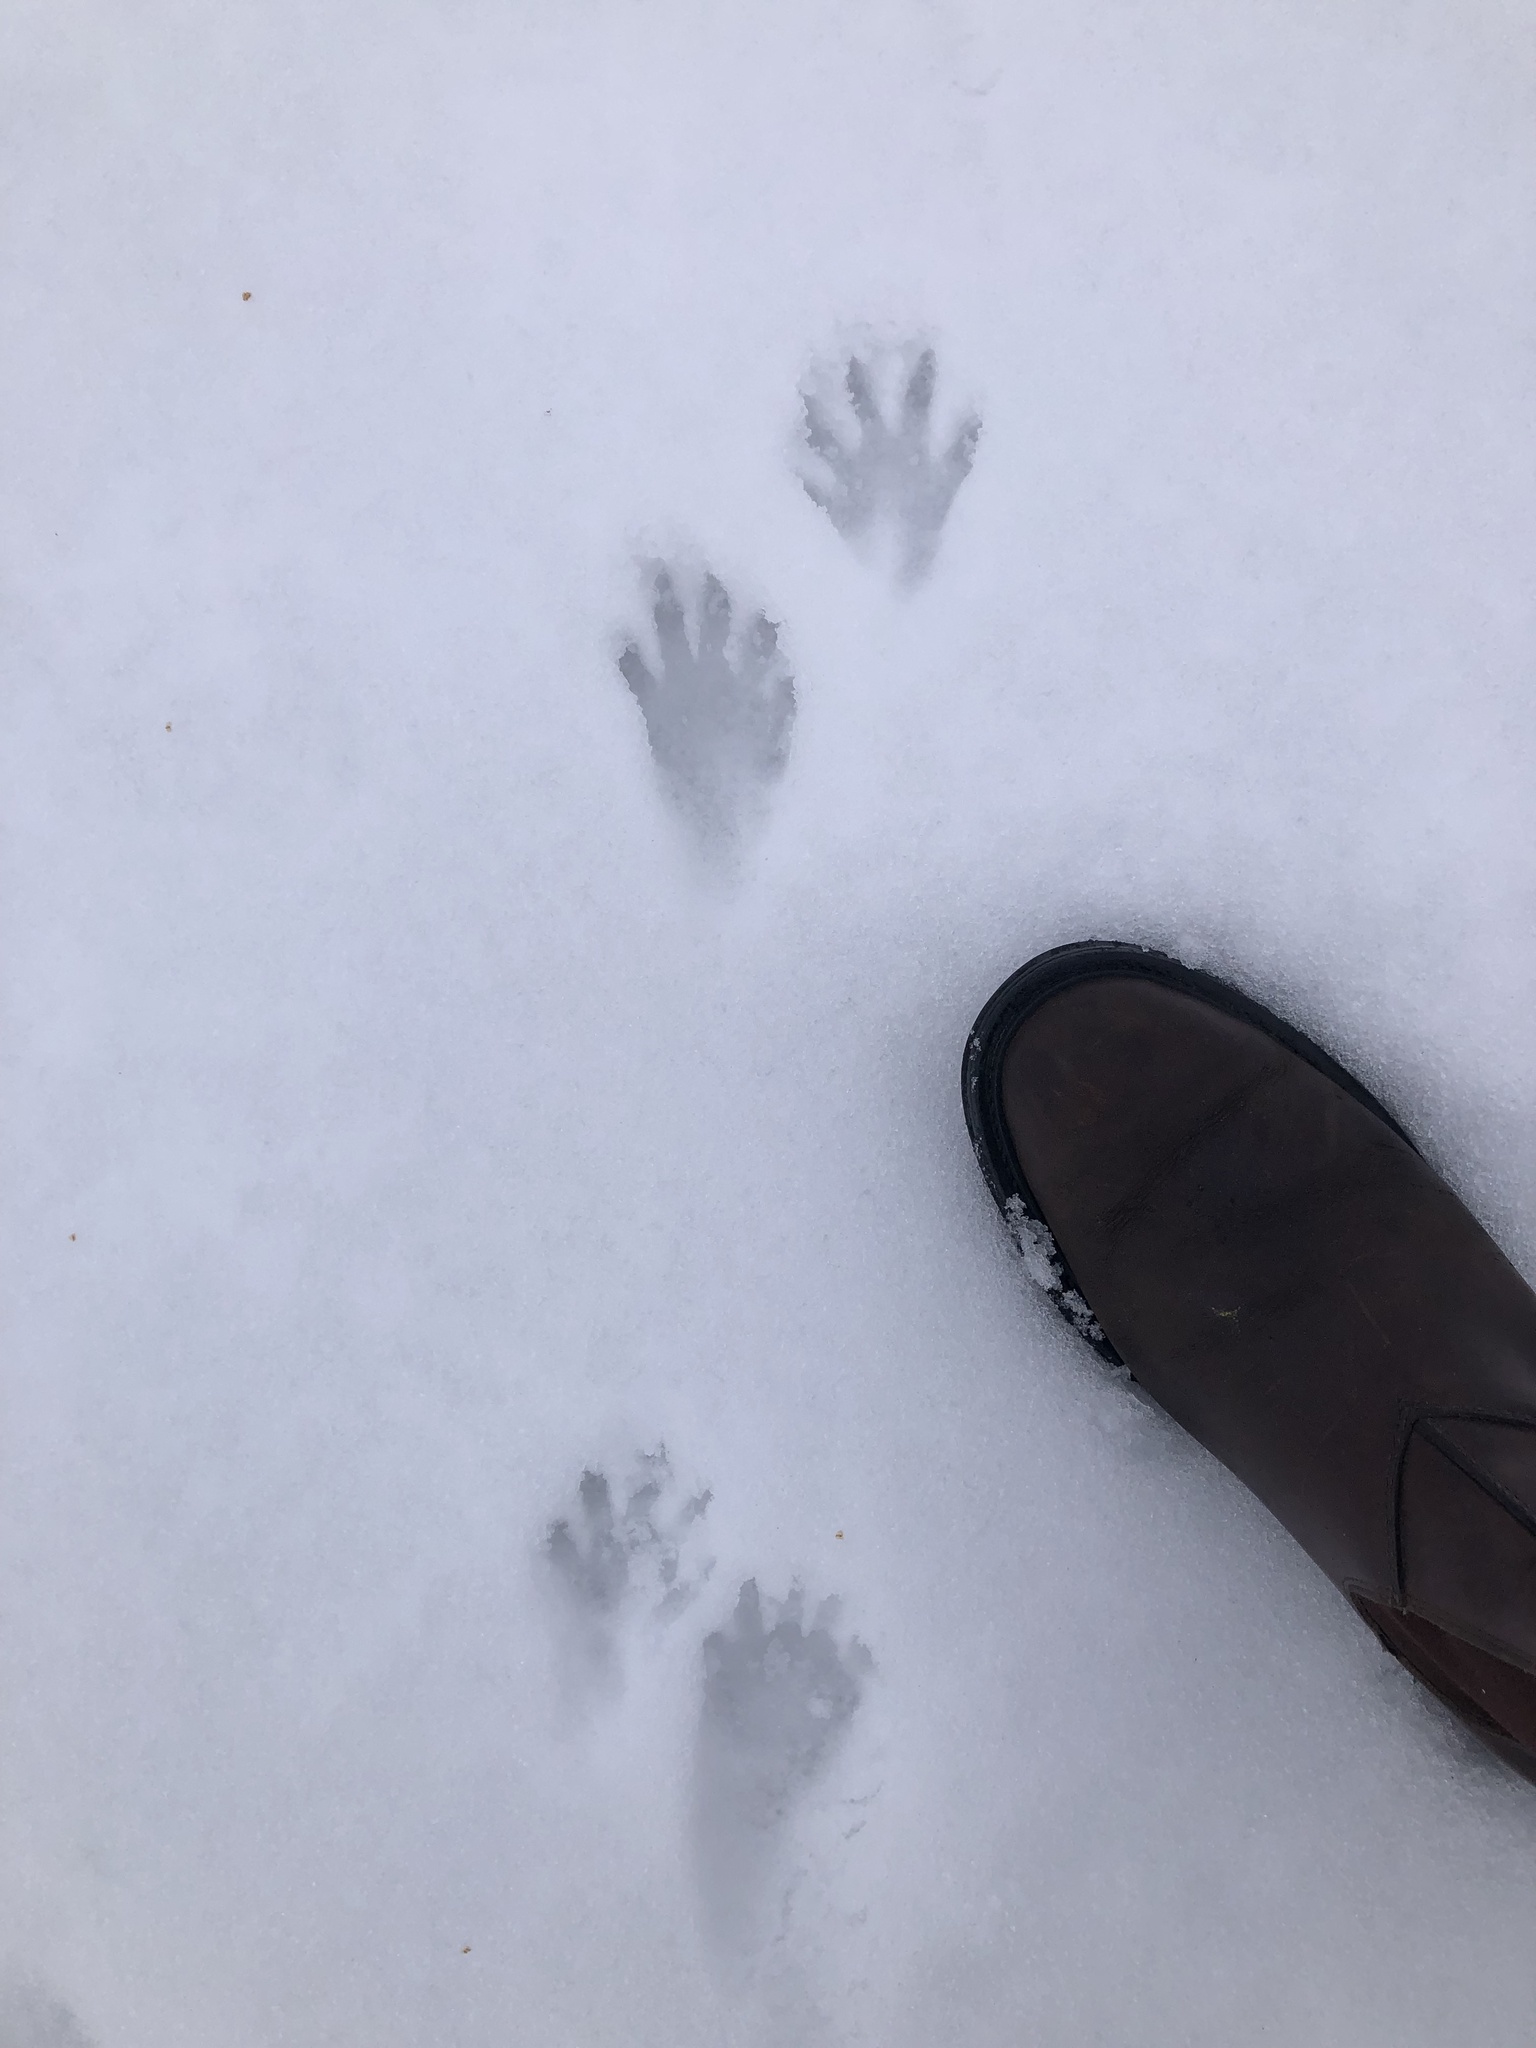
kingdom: Animalia
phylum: Chordata
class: Mammalia
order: Carnivora
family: Procyonidae
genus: Procyon
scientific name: Procyon lotor
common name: Raccoon
